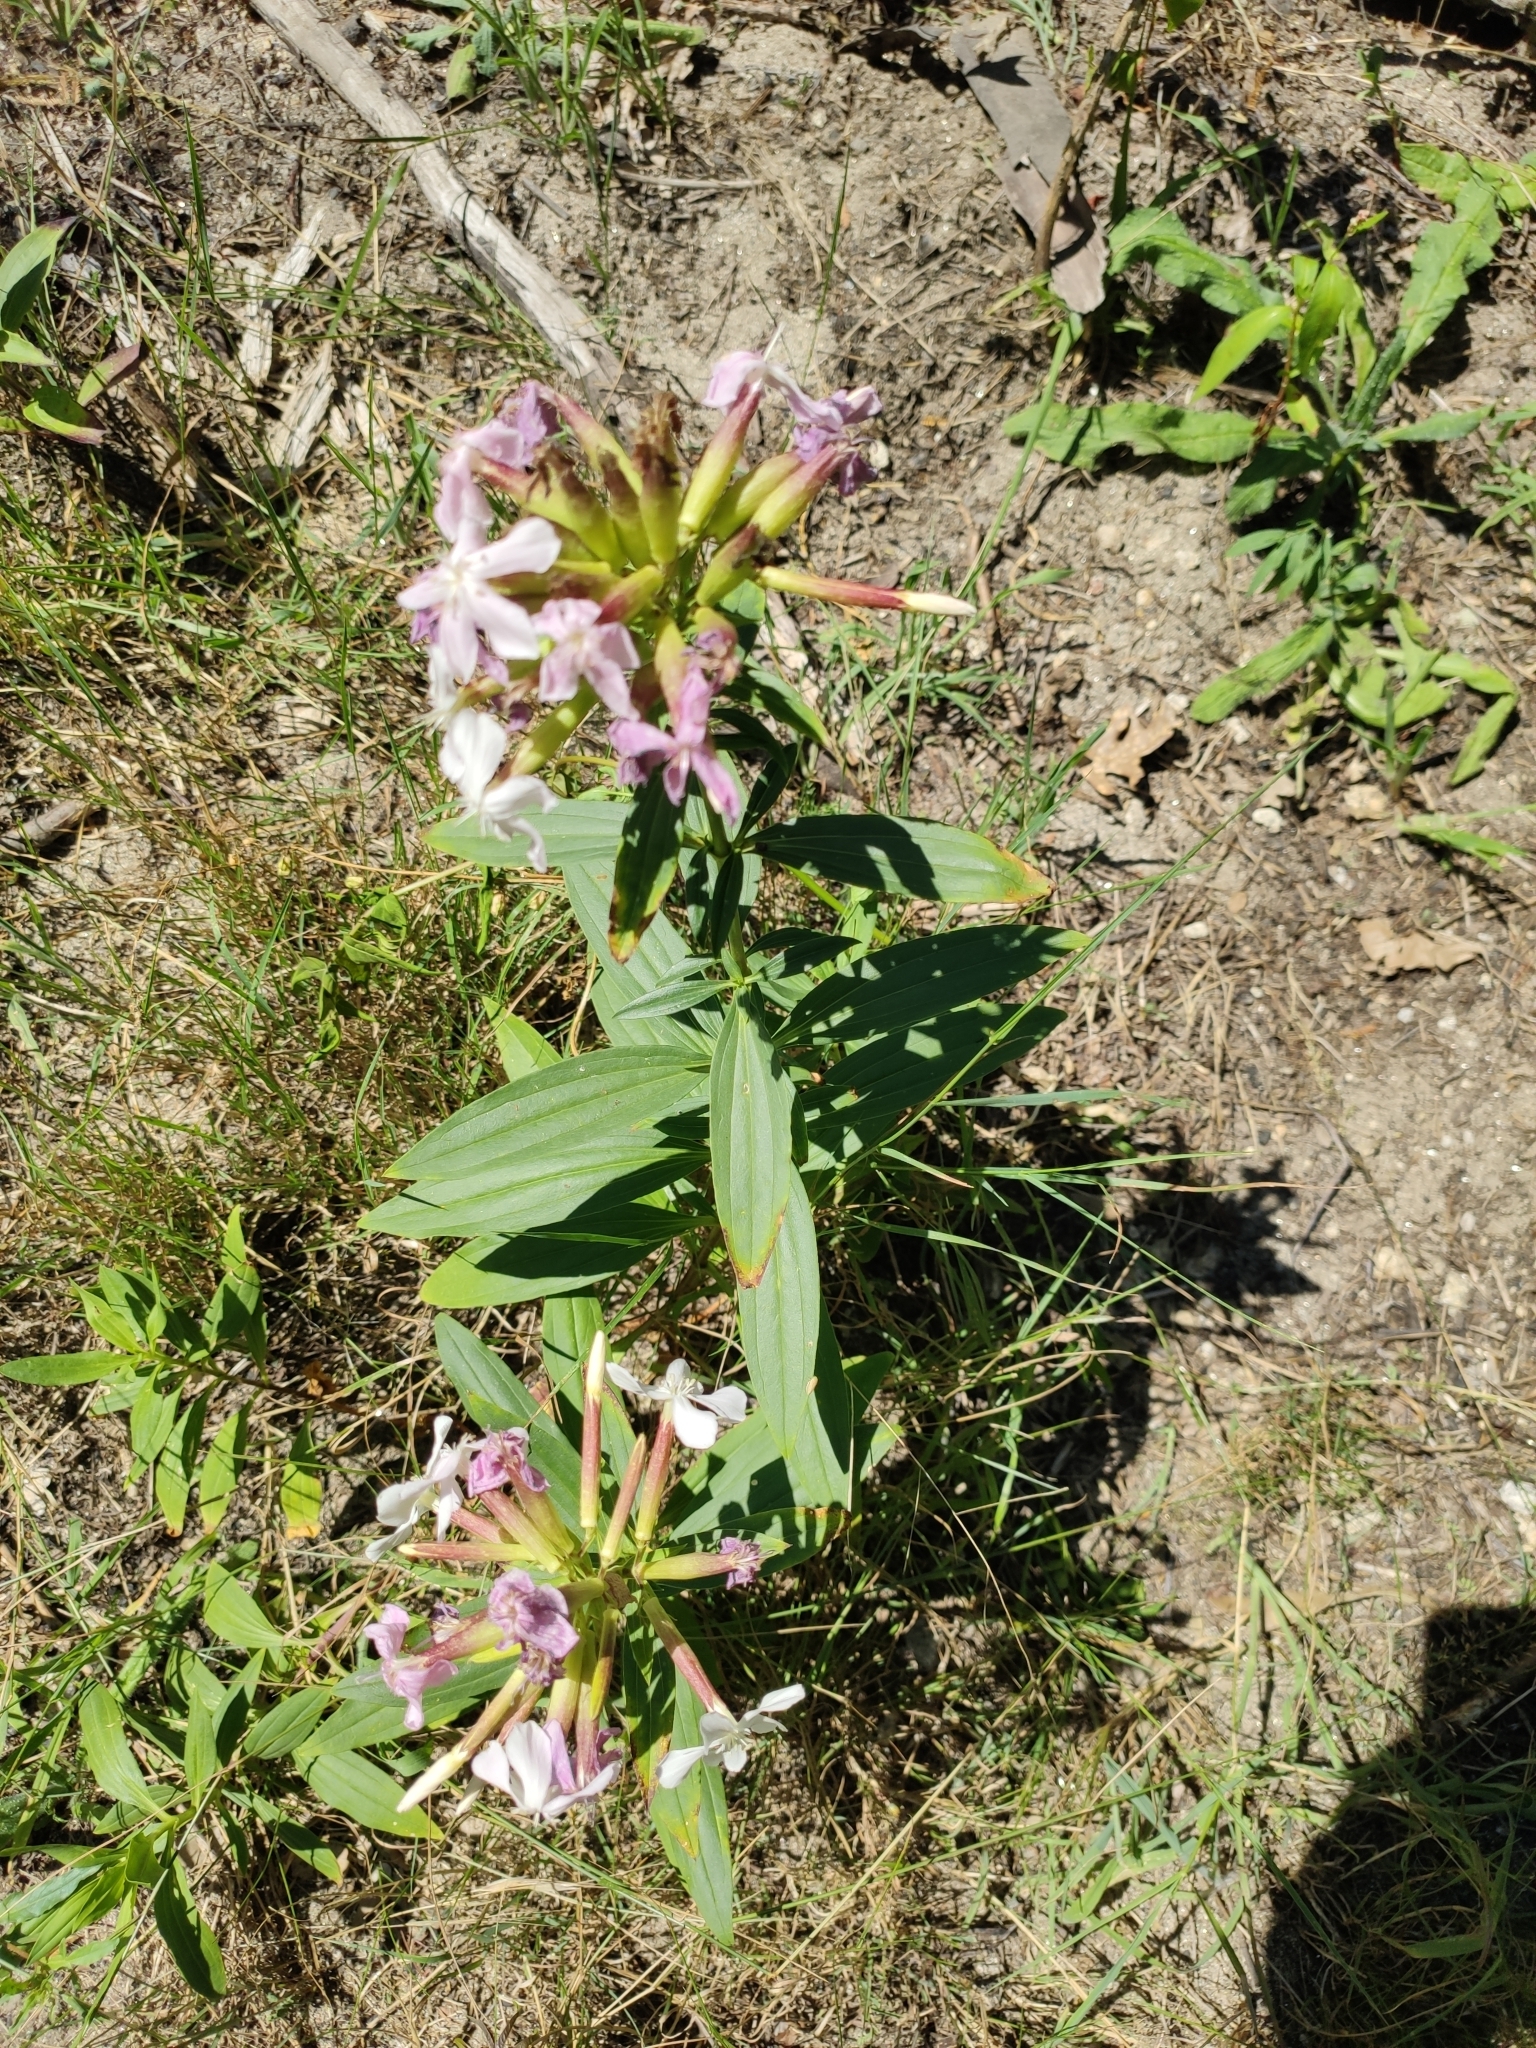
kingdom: Plantae
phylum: Tracheophyta
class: Magnoliopsida
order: Caryophyllales
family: Caryophyllaceae
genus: Saponaria
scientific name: Saponaria officinalis
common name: Soapwort
